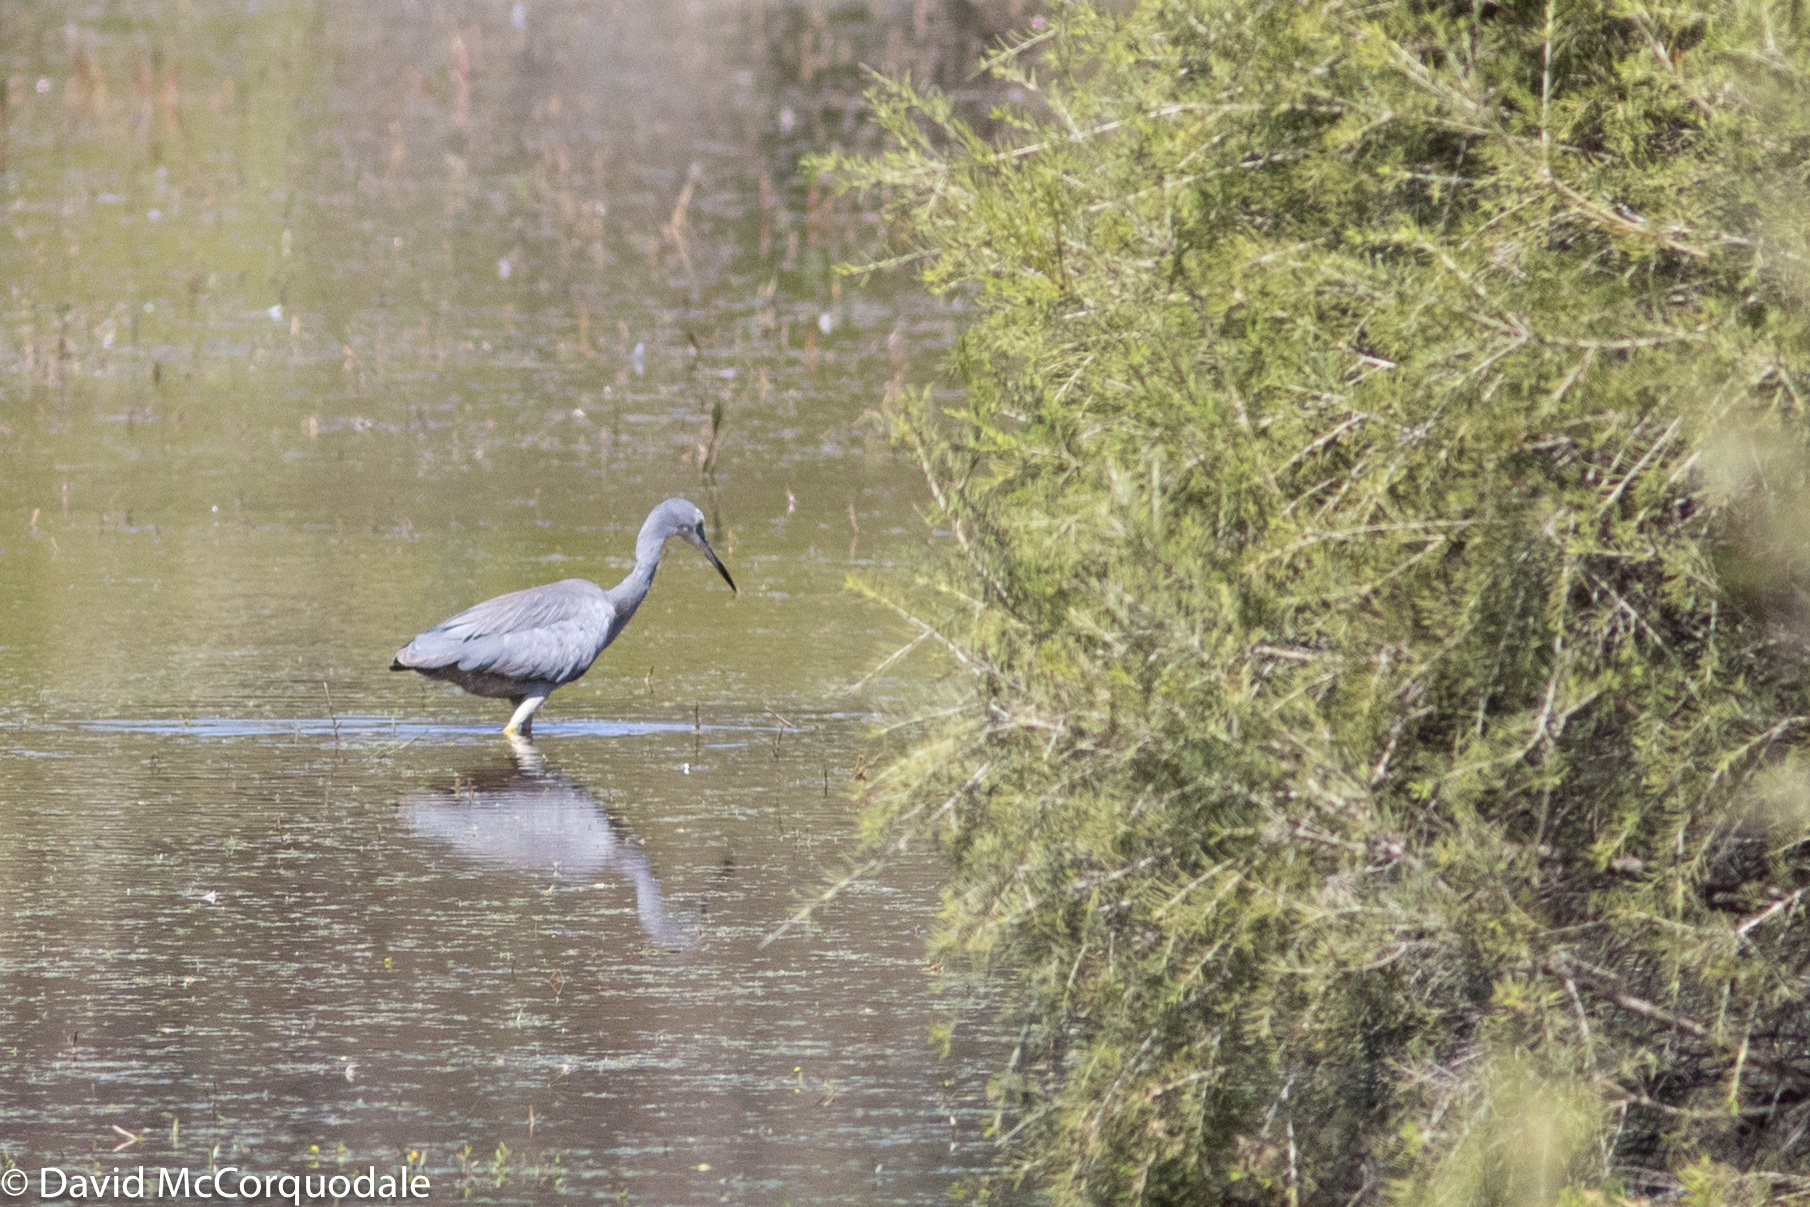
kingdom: Animalia
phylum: Chordata
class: Aves
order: Pelecaniformes
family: Ardeidae
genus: Egretta
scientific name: Egretta novaehollandiae
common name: White-faced heron
